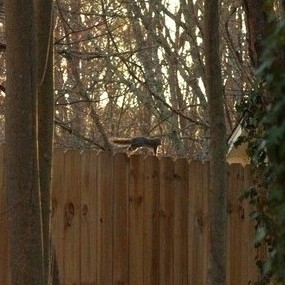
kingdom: Animalia
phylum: Chordata
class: Mammalia
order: Rodentia
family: Sciuridae
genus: Sciurus
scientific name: Sciurus carolinensis
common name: Eastern gray squirrel
